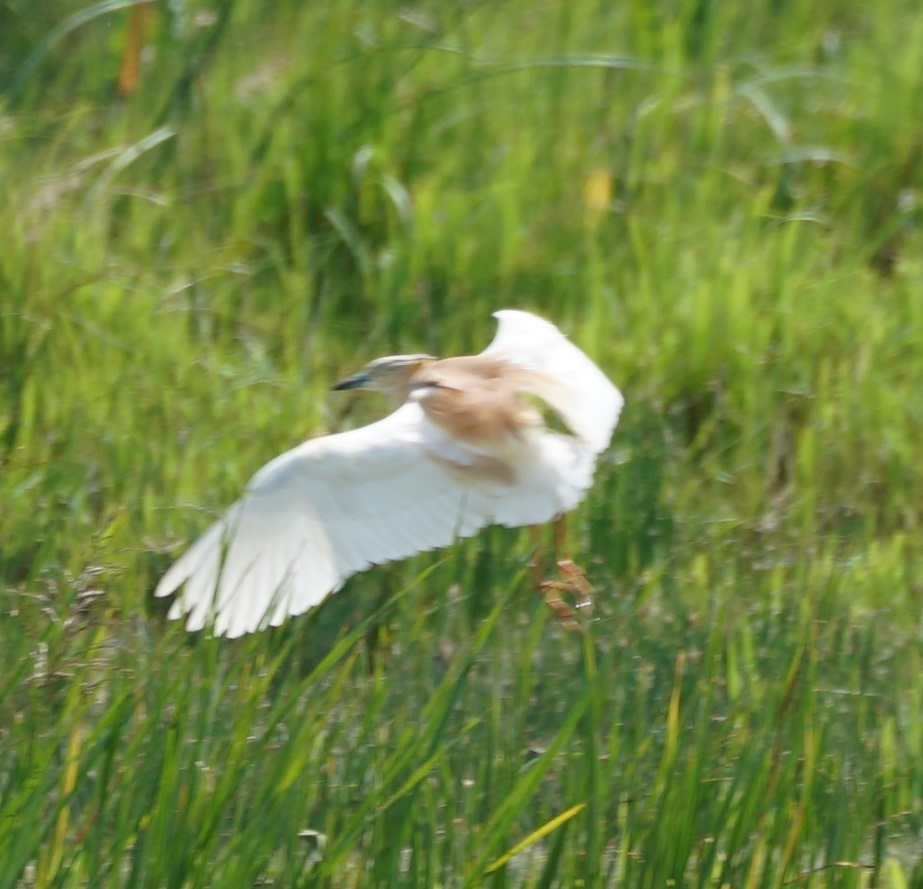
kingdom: Animalia
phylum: Chordata
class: Aves
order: Pelecaniformes
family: Ardeidae
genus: Ardeola
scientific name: Ardeola ralloides
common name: Squacco heron
